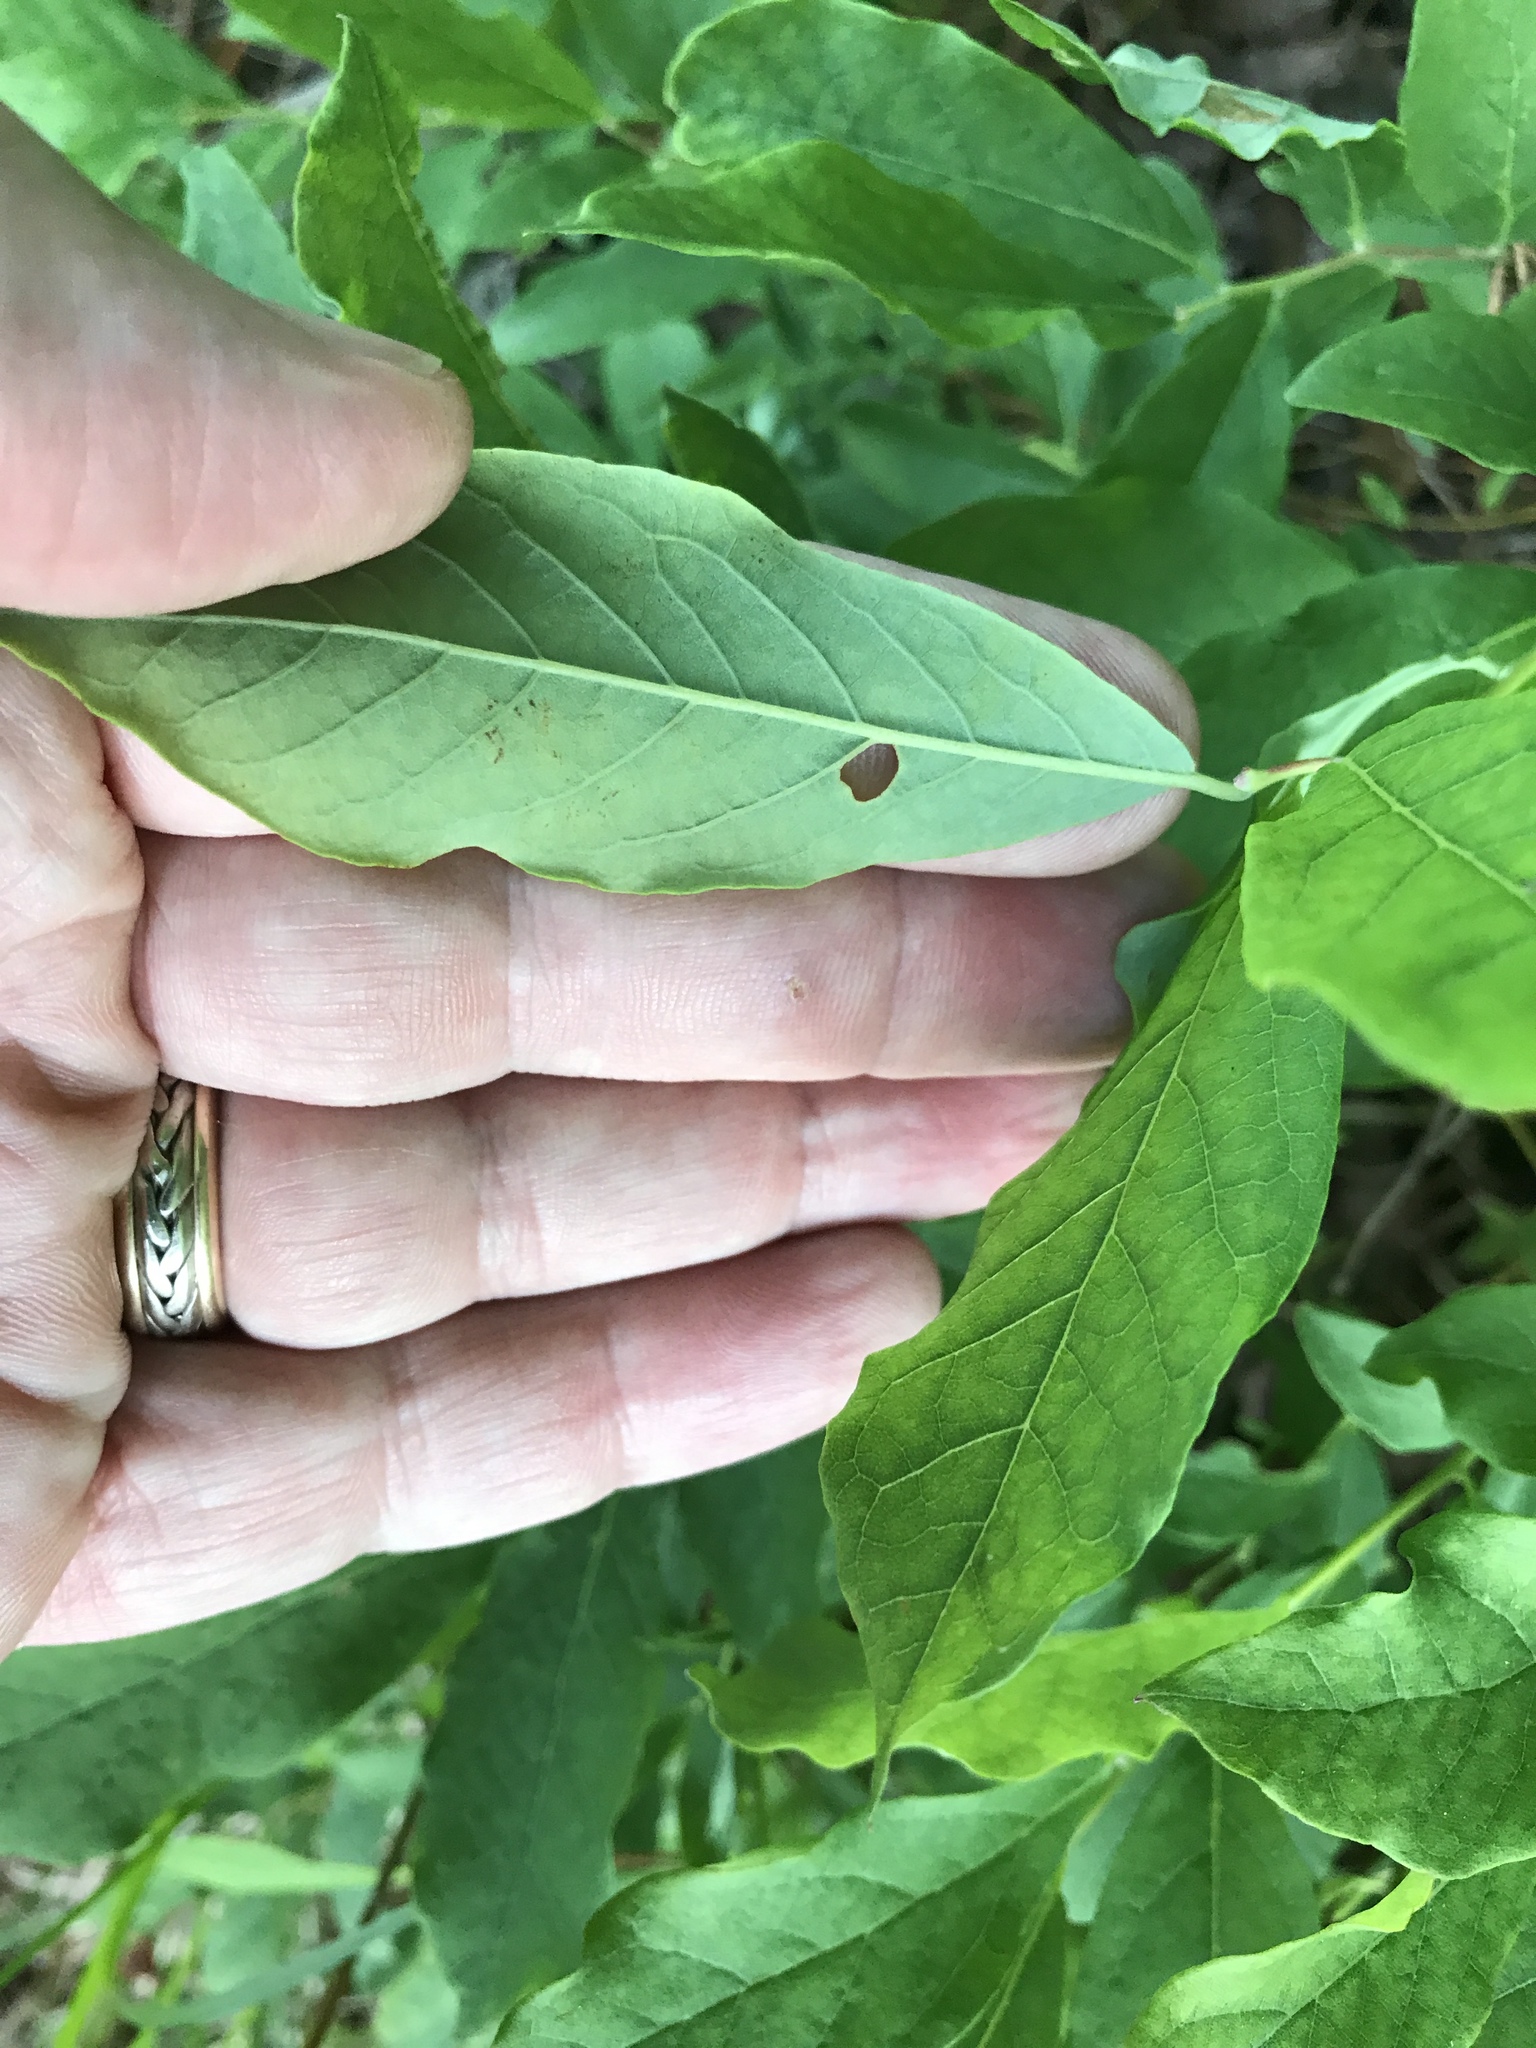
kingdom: Plantae
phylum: Tracheophyta
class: Magnoliopsida
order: Ericales
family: Ericaceae
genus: Vaccinium
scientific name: Vaccinium stamineum
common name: Deerberry
